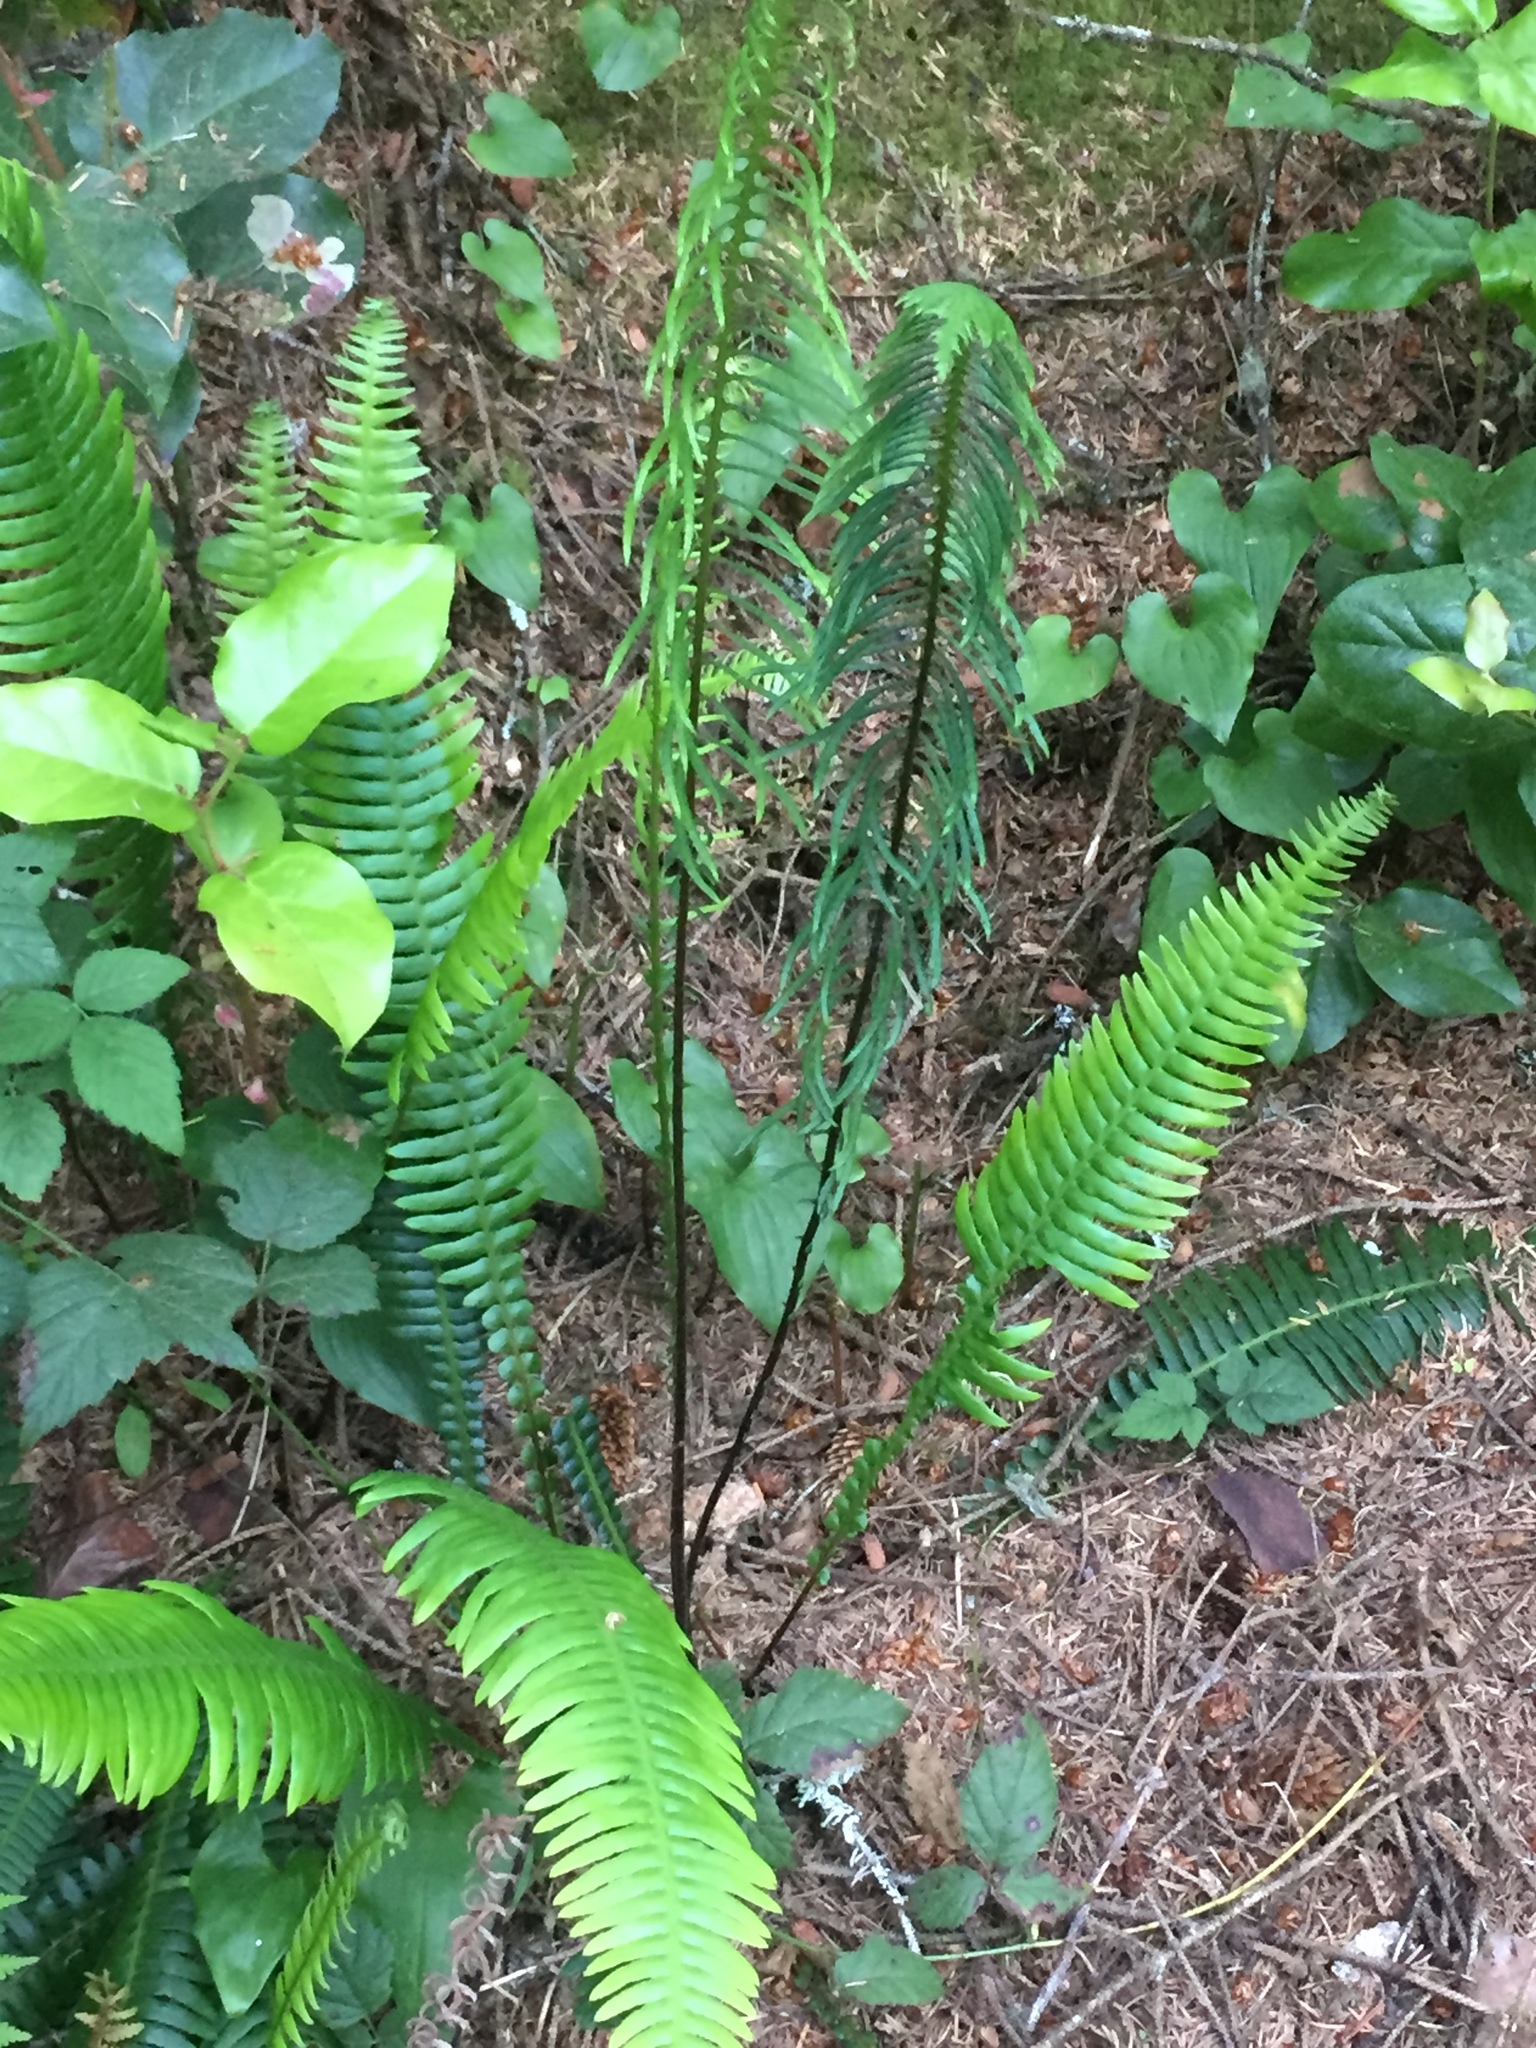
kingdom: Plantae
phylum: Tracheophyta
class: Polypodiopsida
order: Polypodiales
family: Blechnaceae
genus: Struthiopteris
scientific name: Struthiopteris spicant
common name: Deer fern
